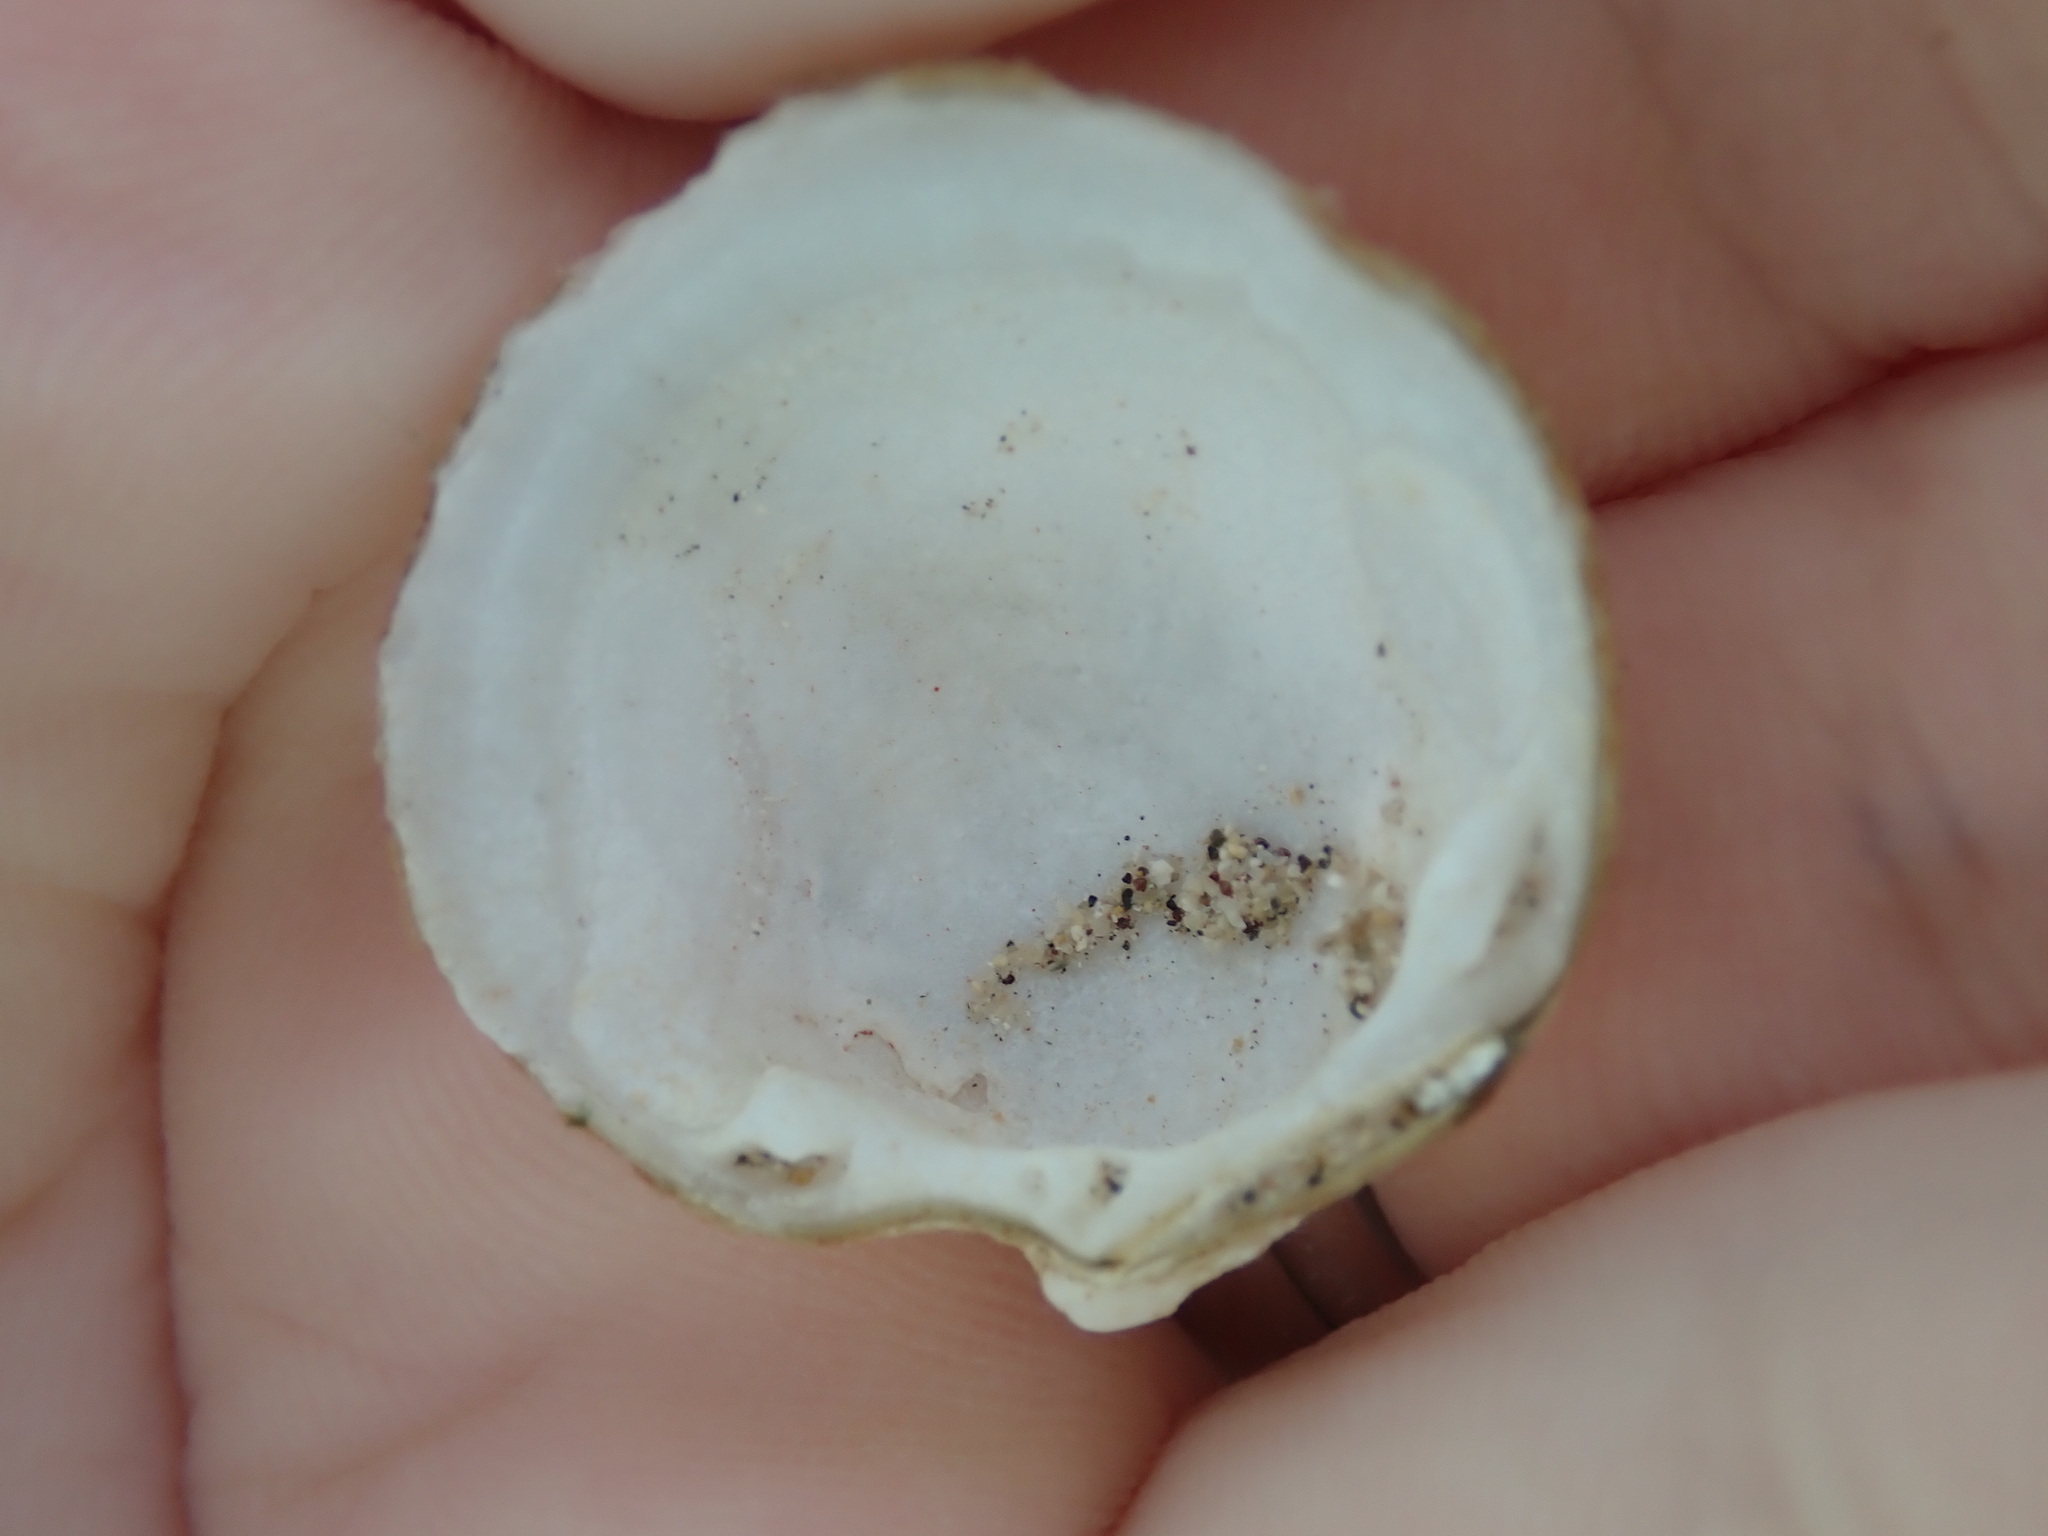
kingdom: Animalia
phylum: Mollusca
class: Bivalvia
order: Lucinida
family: Lucinidae
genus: Lucina
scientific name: Lucina adansoni
